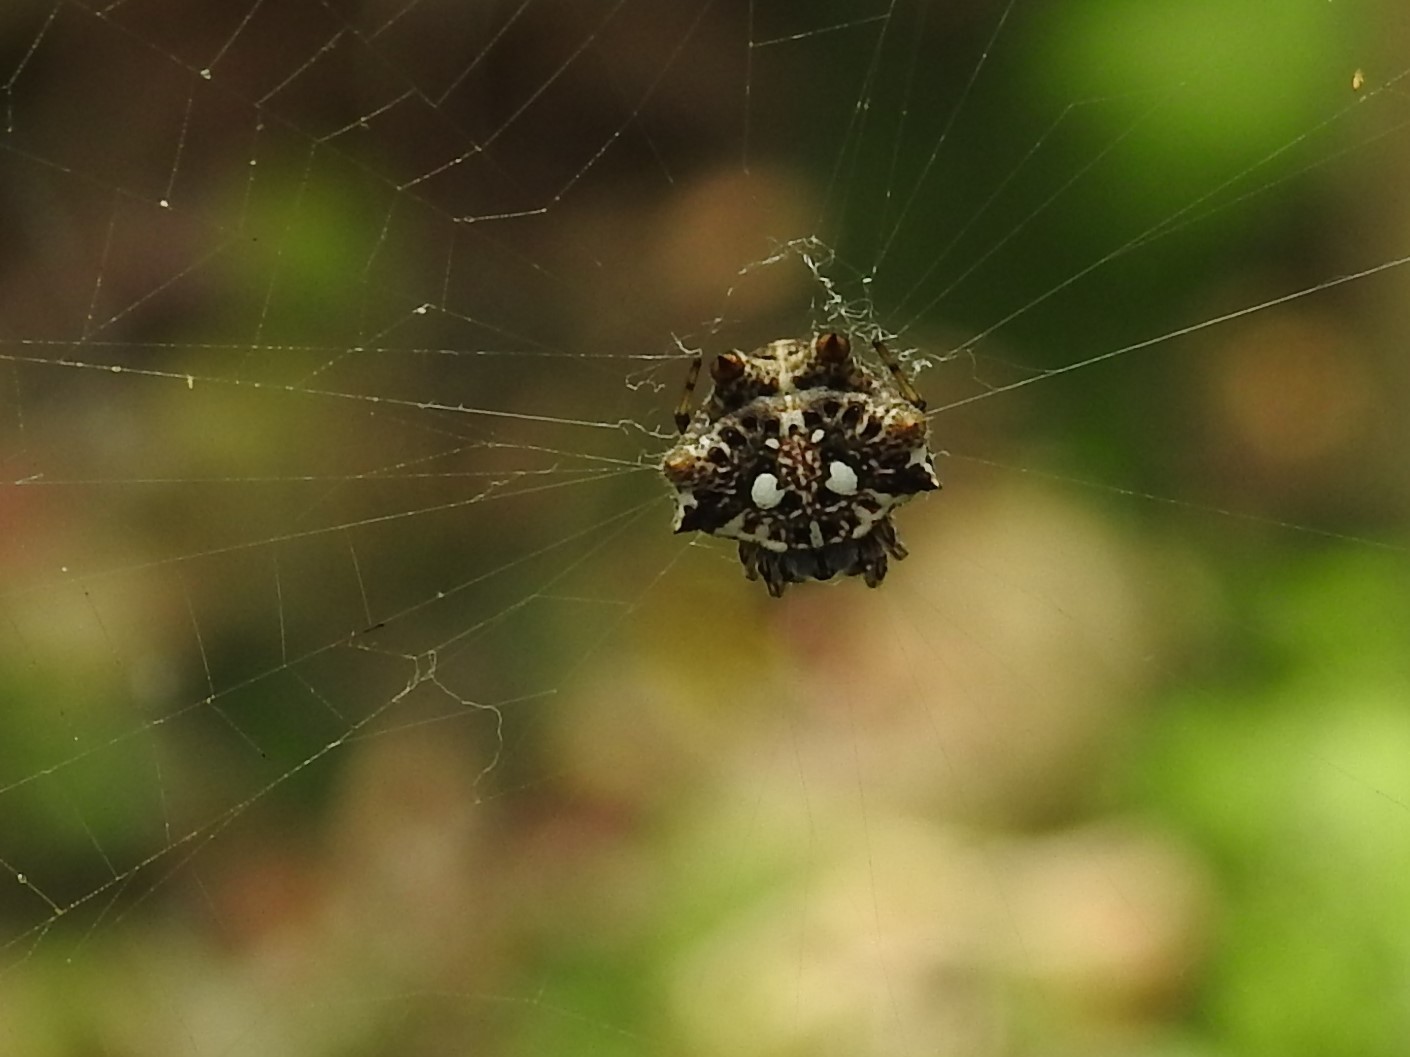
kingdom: Animalia
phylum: Arthropoda
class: Arachnida
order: Araneae
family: Araneidae
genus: Thelacantha
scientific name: Thelacantha brevispina
